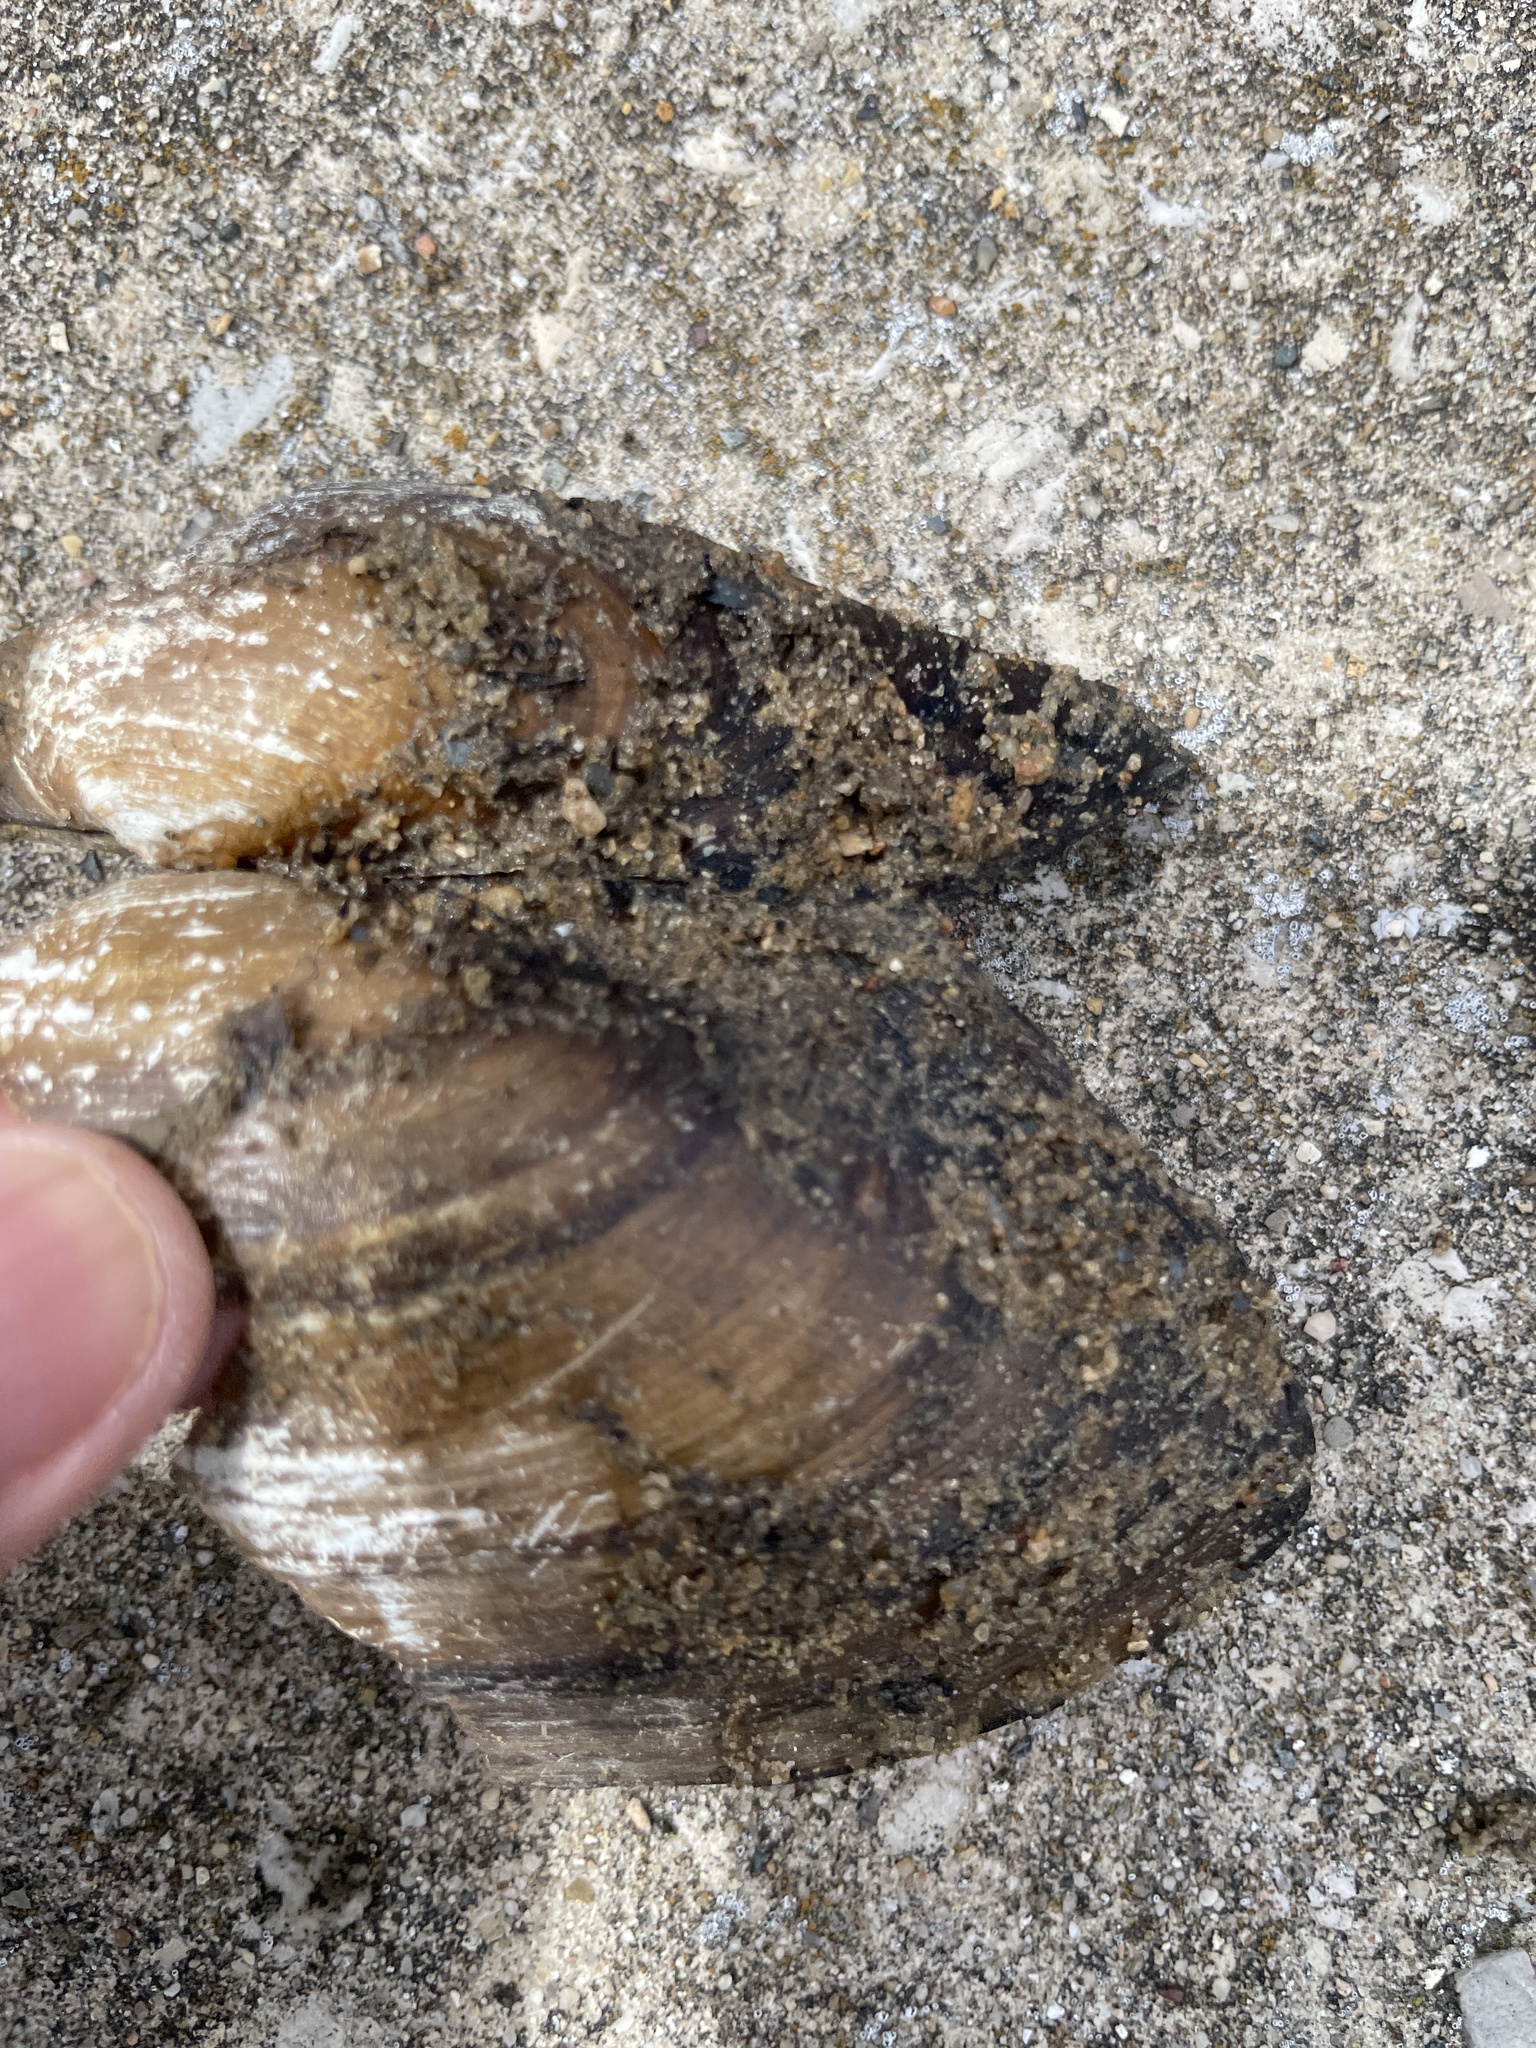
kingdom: Animalia
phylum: Mollusca
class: Bivalvia
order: Unionida
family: Unionidae
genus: Pyganodon
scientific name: Pyganodon grandis
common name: Giant floater
